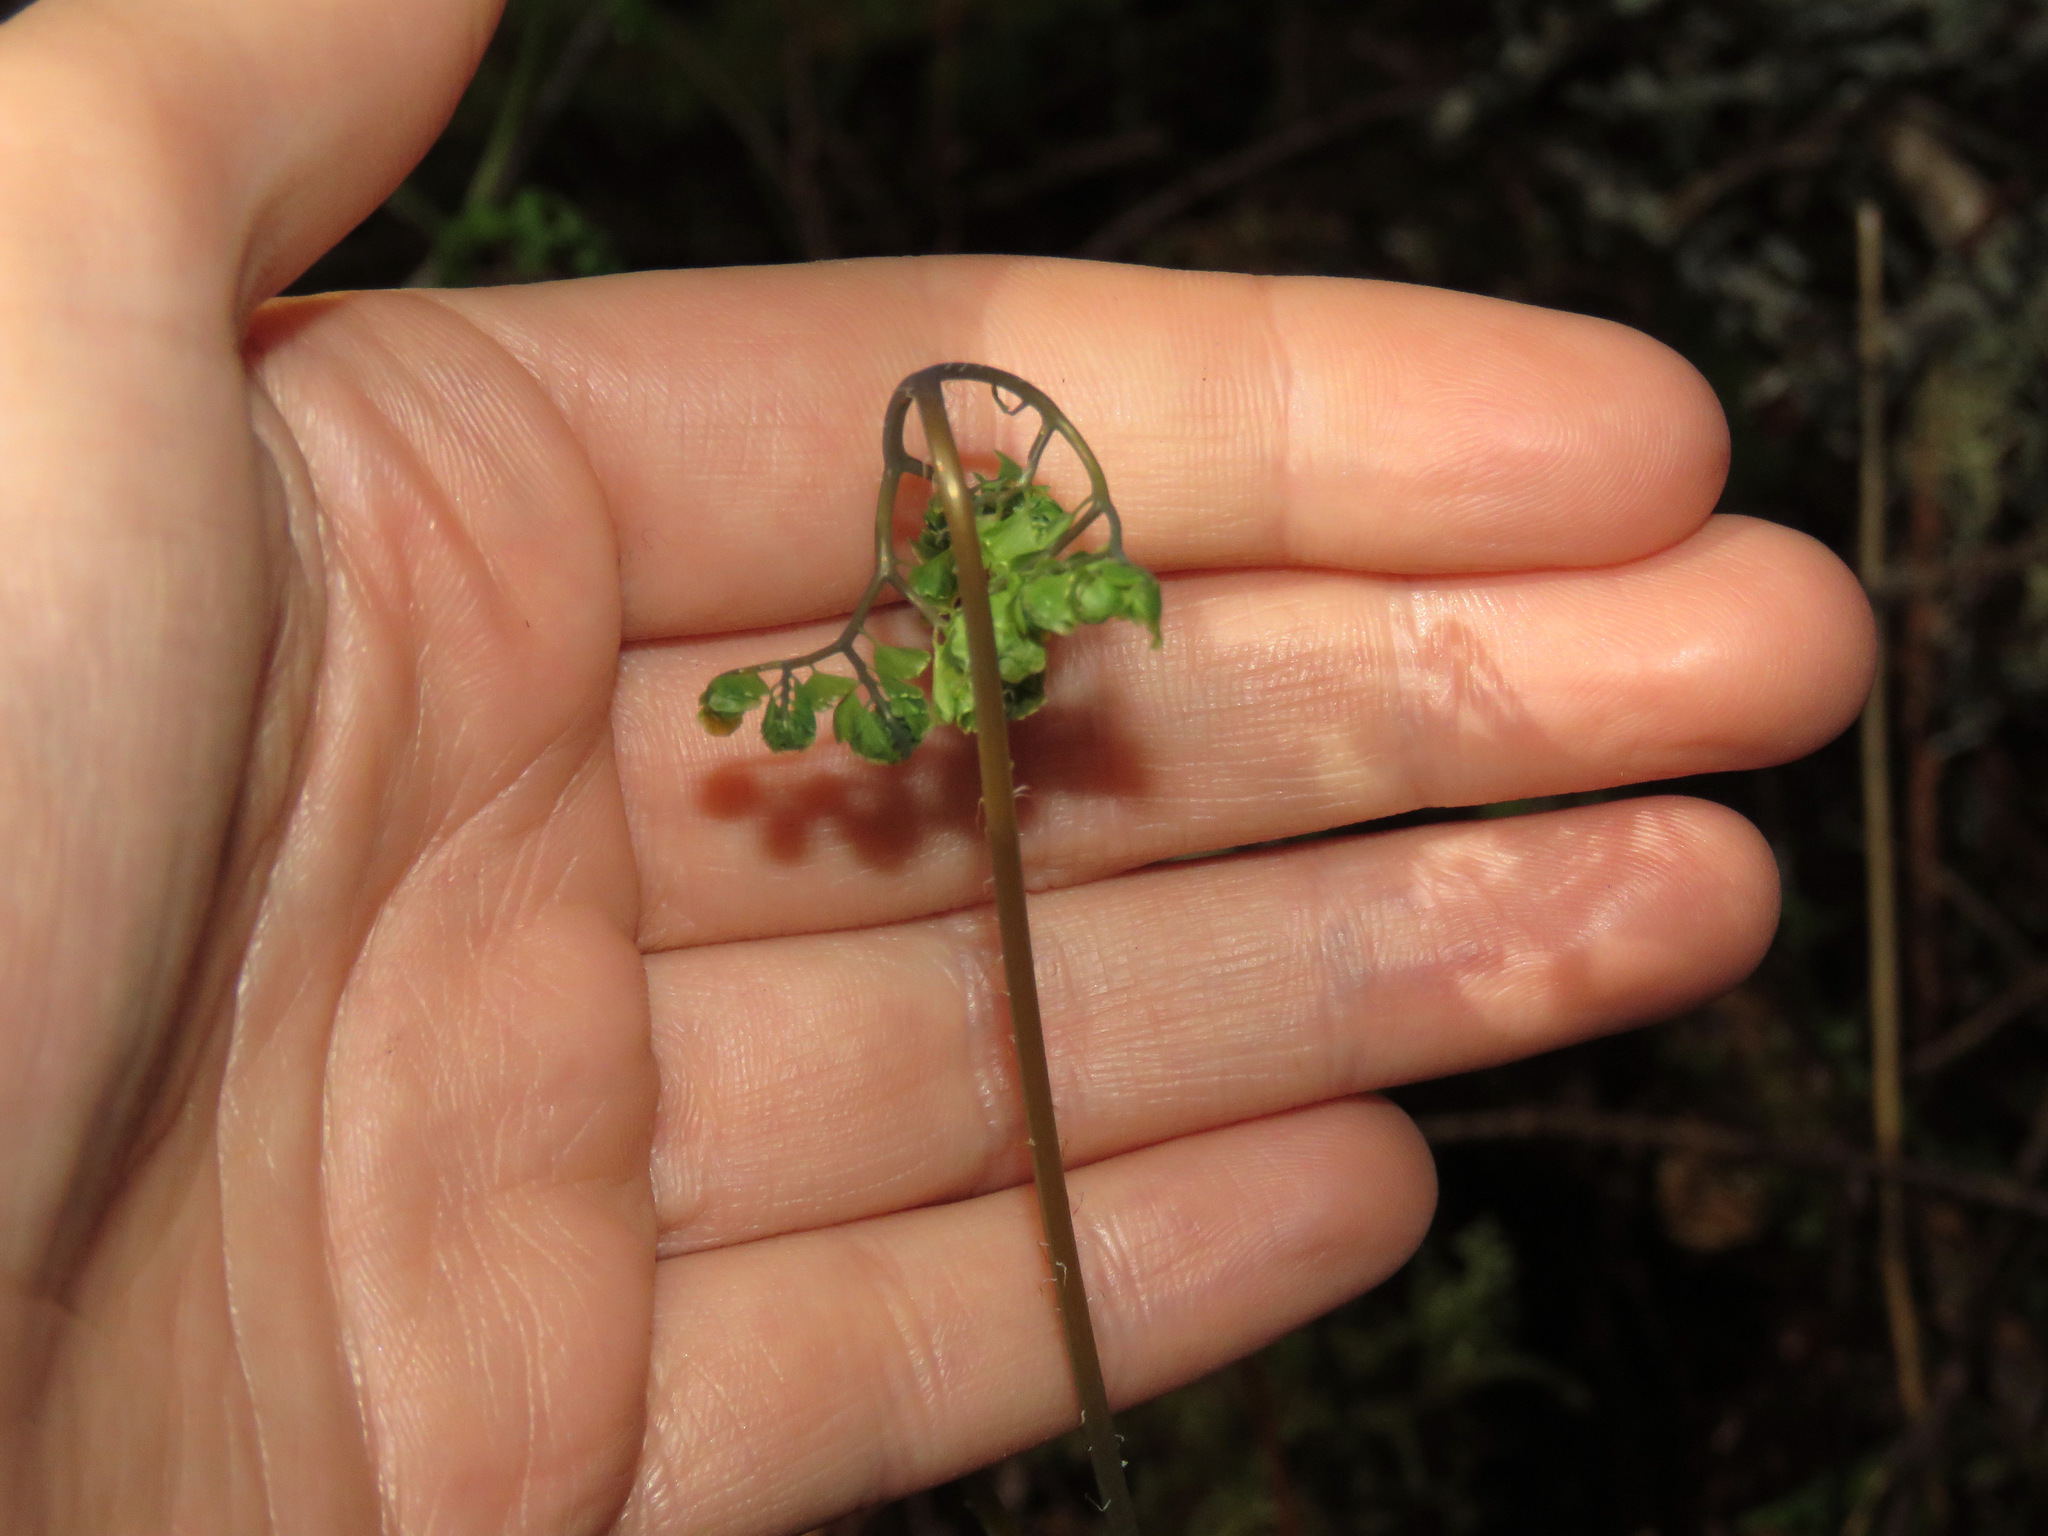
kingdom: Plantae
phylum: Tracheophyta
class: Polypodiopsida
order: Polypodiales
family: Pteridaceae
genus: Adiantum
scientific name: Adiantum aleuticum
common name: Aleutian maidenhair fern
